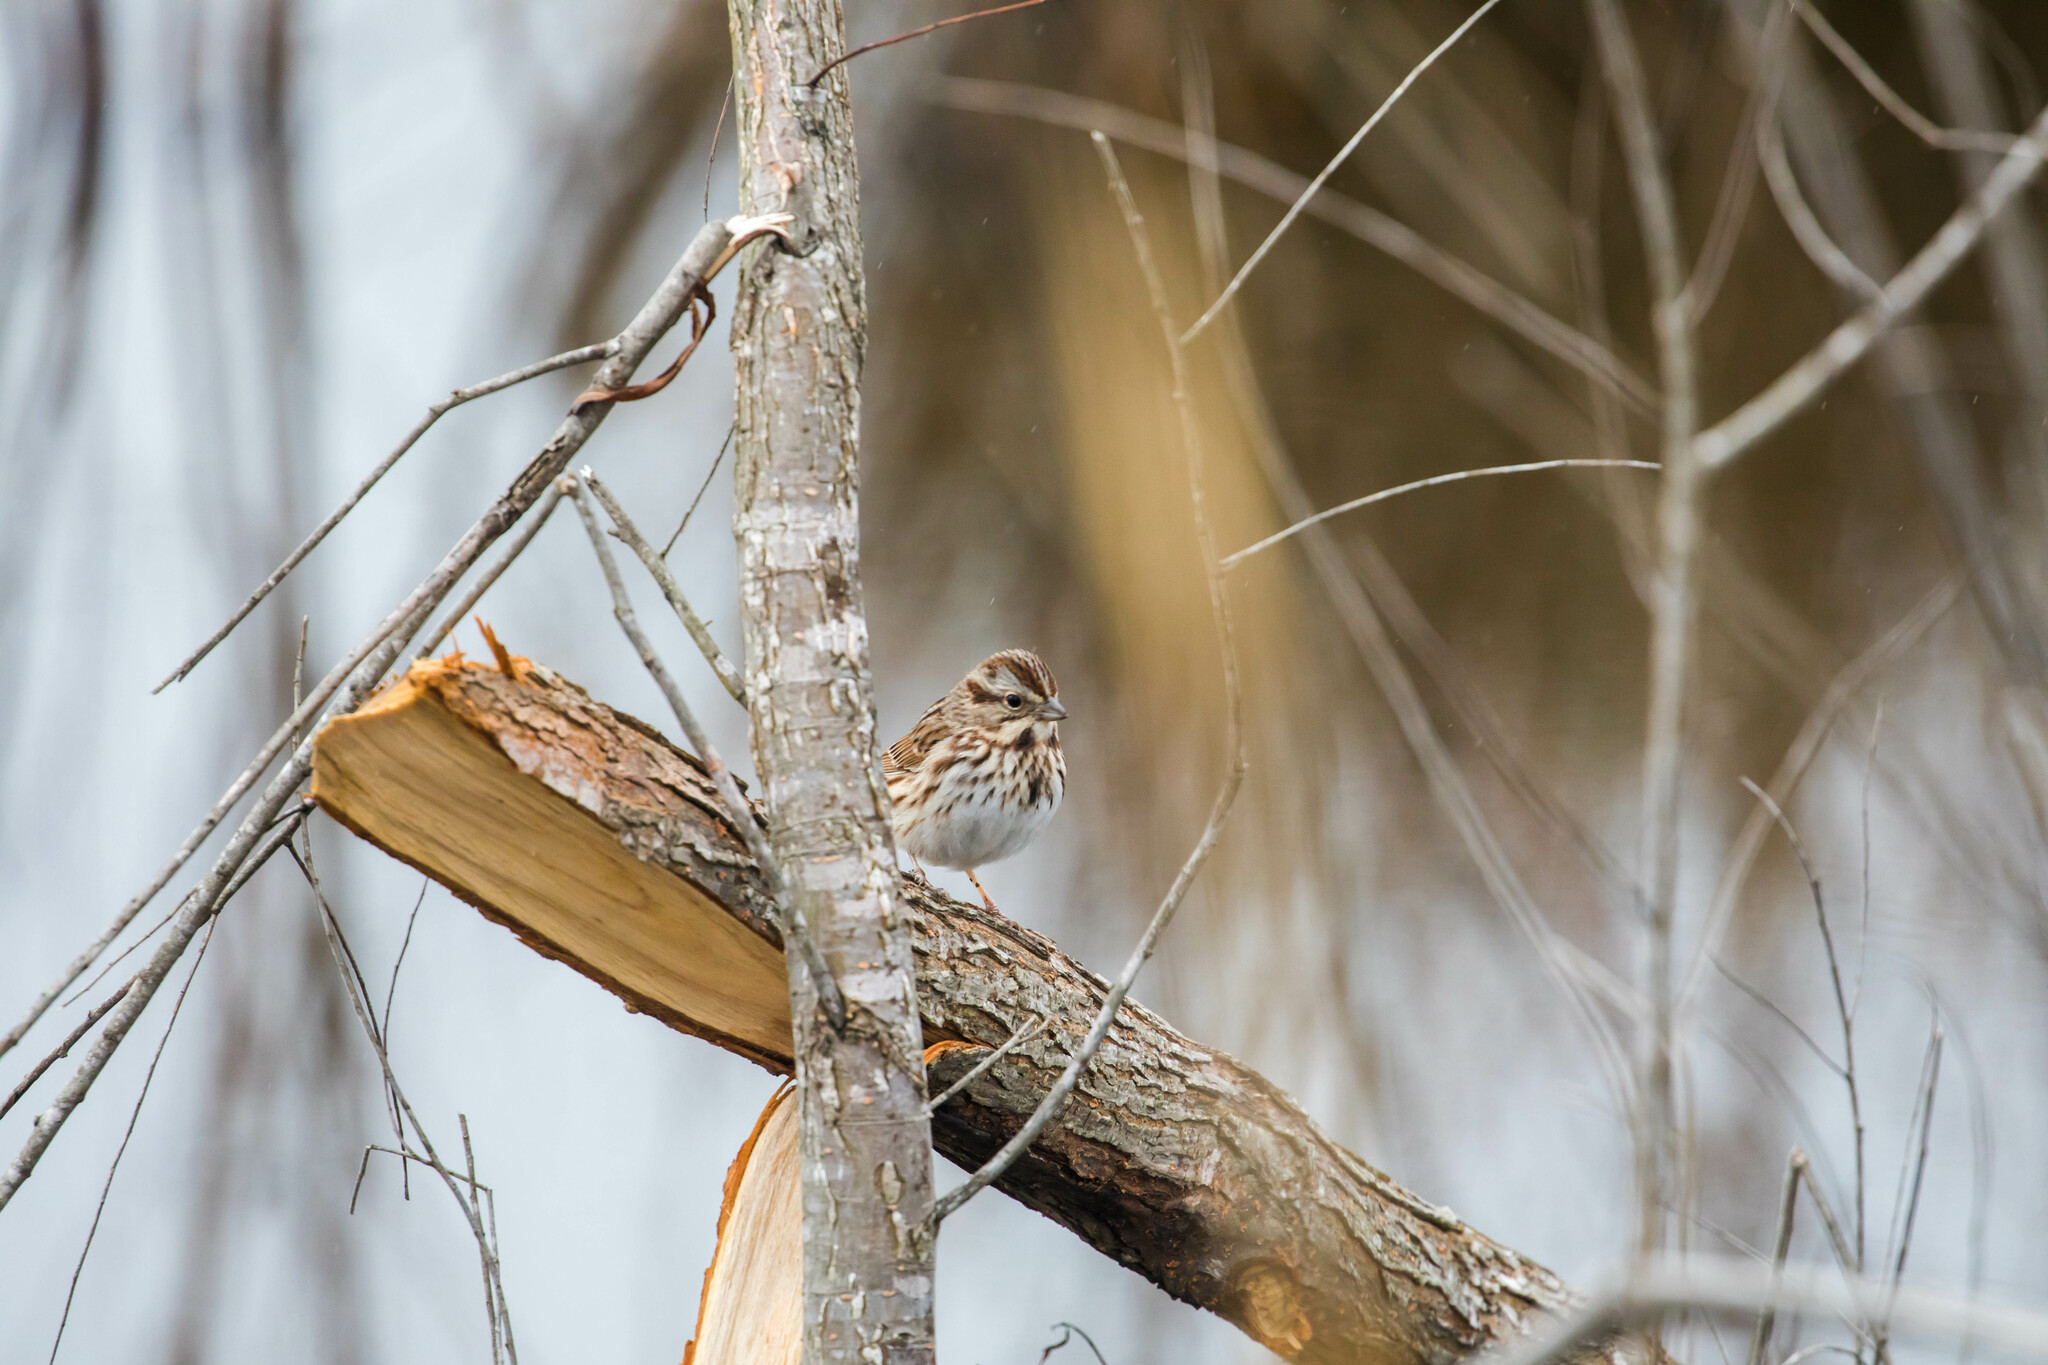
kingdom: Animalia
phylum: Chordata
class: Aves
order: Passeriformes
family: Passerellidae
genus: Melospiza
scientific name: Melospiza melodia
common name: Song sparrow
